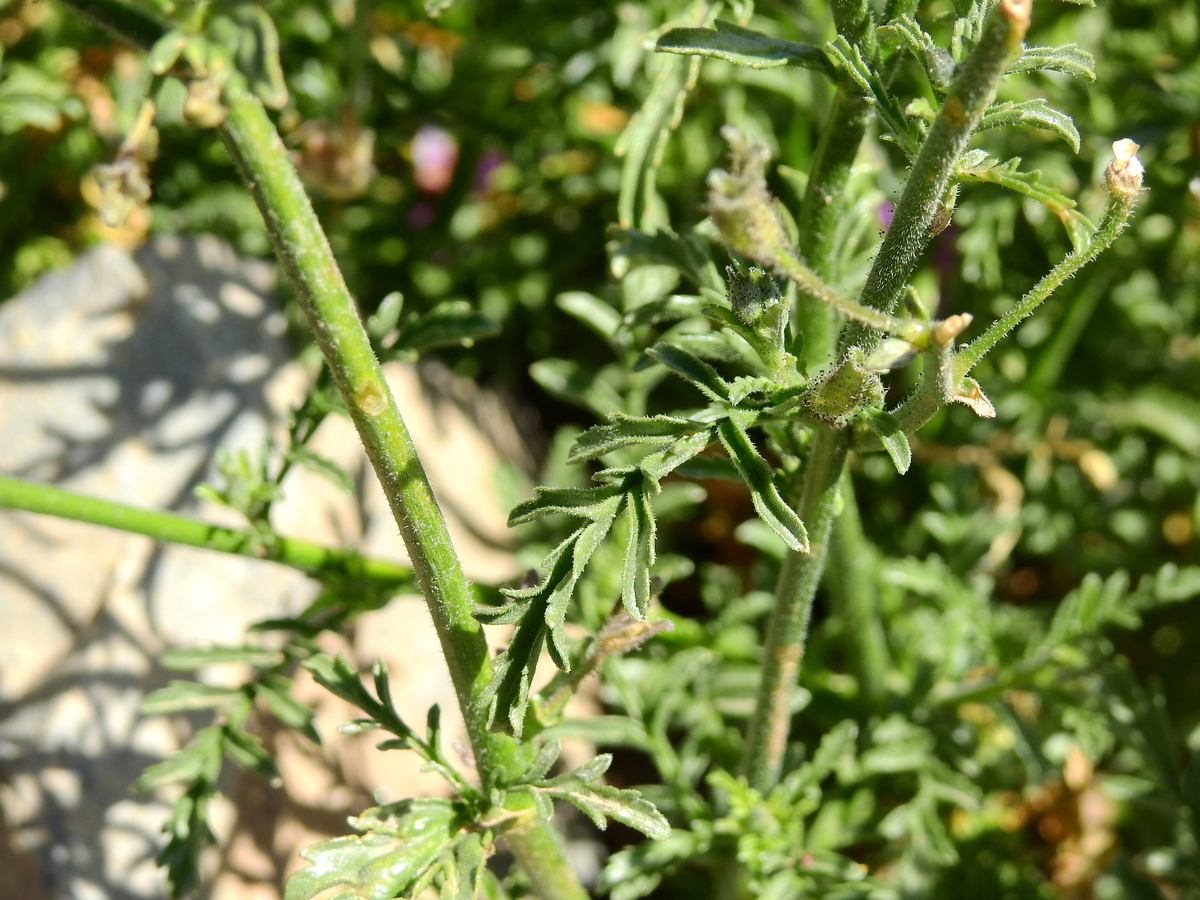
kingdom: Plantae
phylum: Tracheophyta
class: Magnoliopsida
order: Solanales
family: Solanaceae
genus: Schizanthus
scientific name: Schizanthus grahamii
